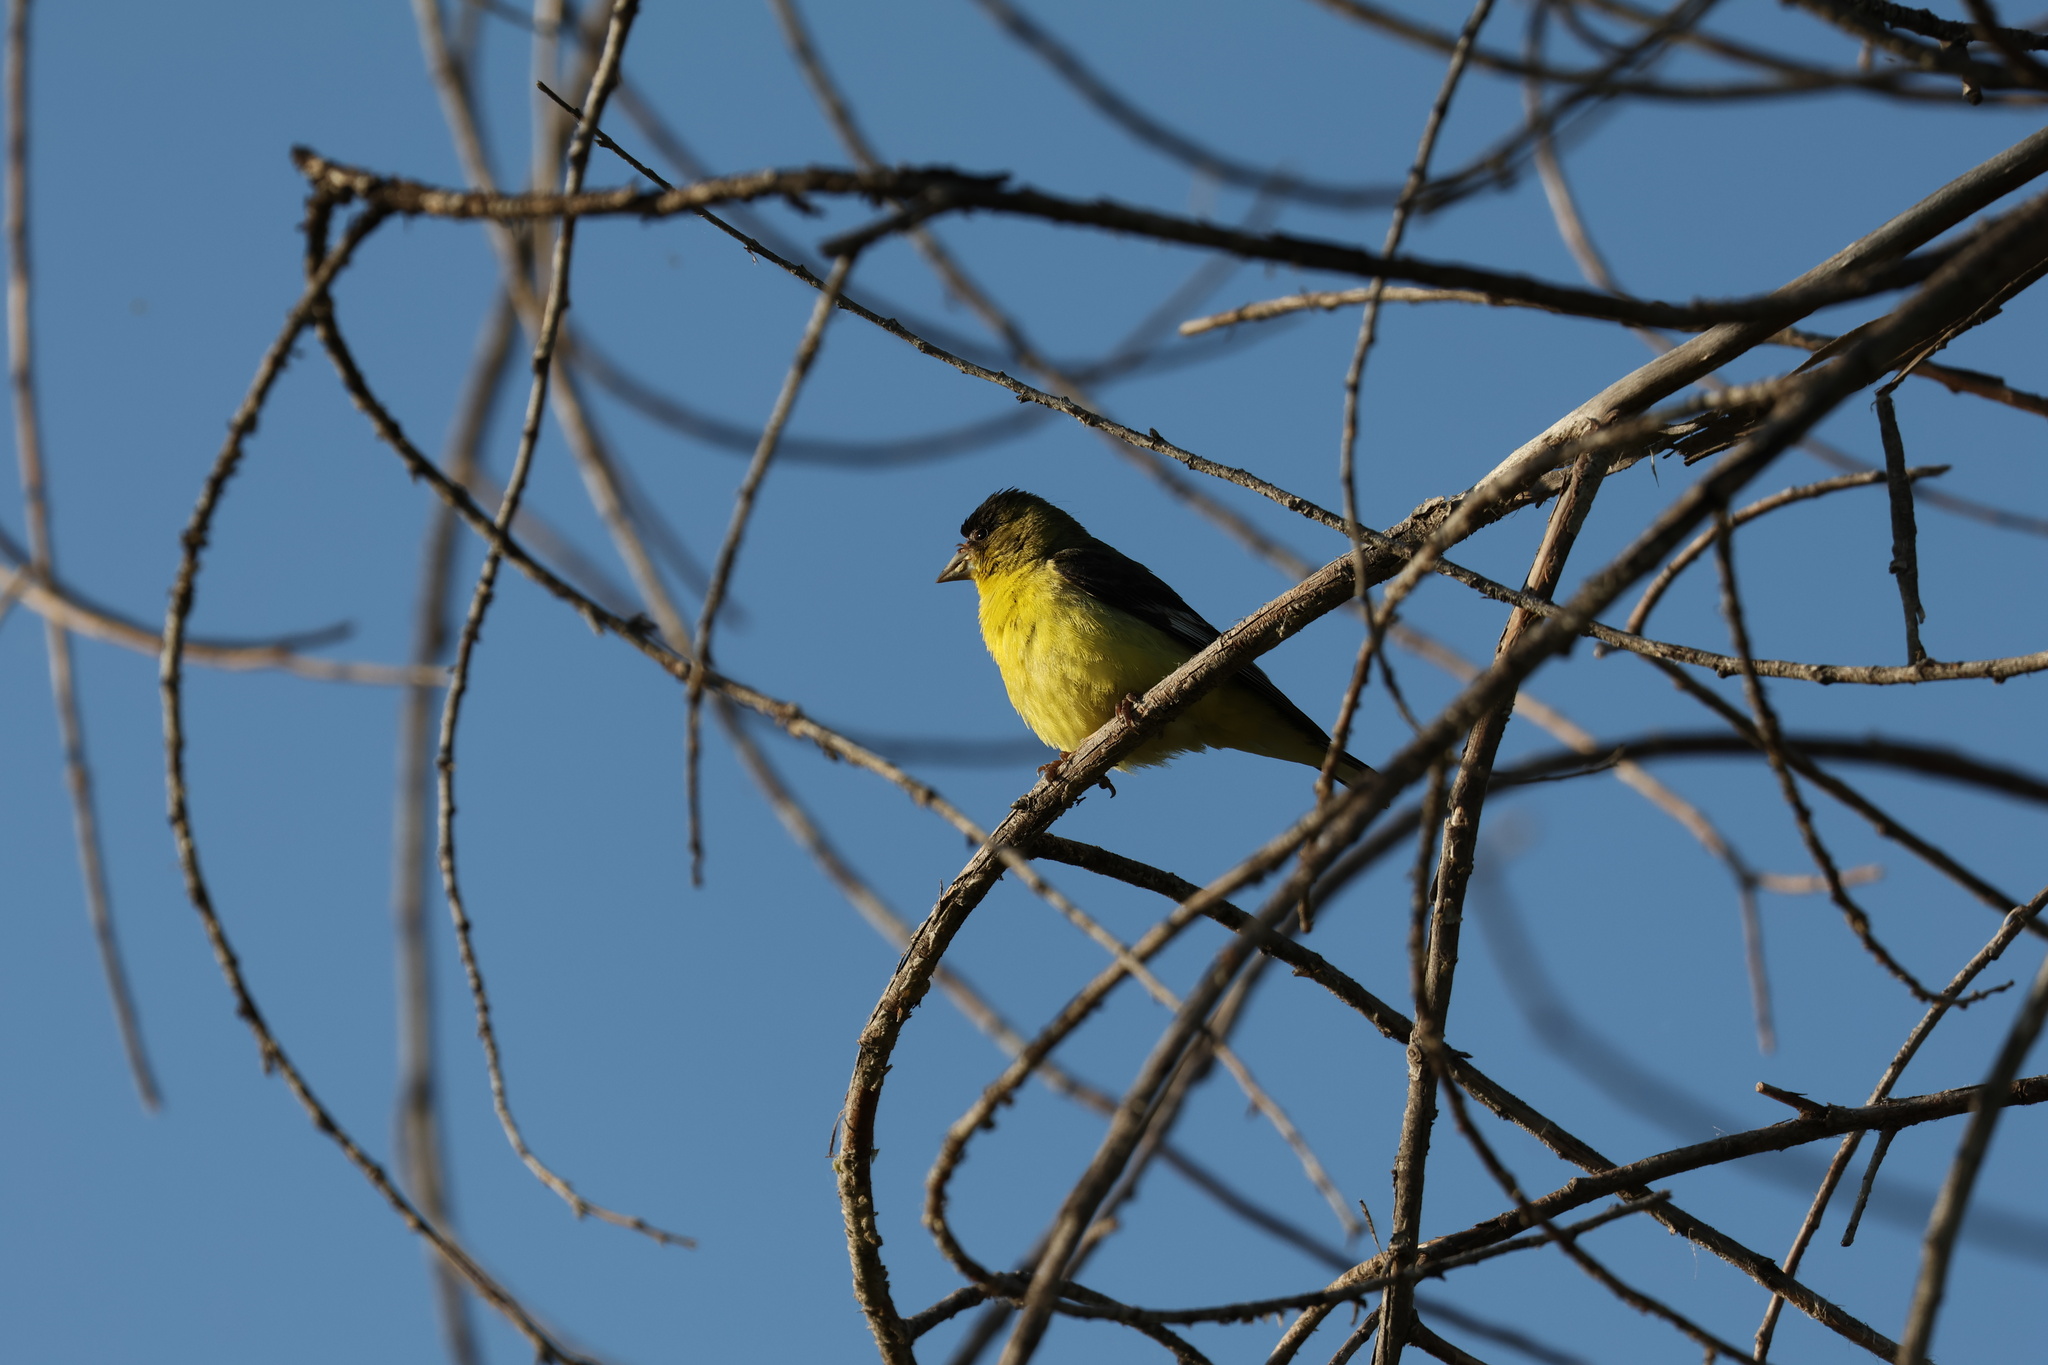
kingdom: Animalia
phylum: Chordata
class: Aves
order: Passeriformes
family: Fringillidae
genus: Spinus
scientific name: Spinus psaltria
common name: Lesser goldfinch
